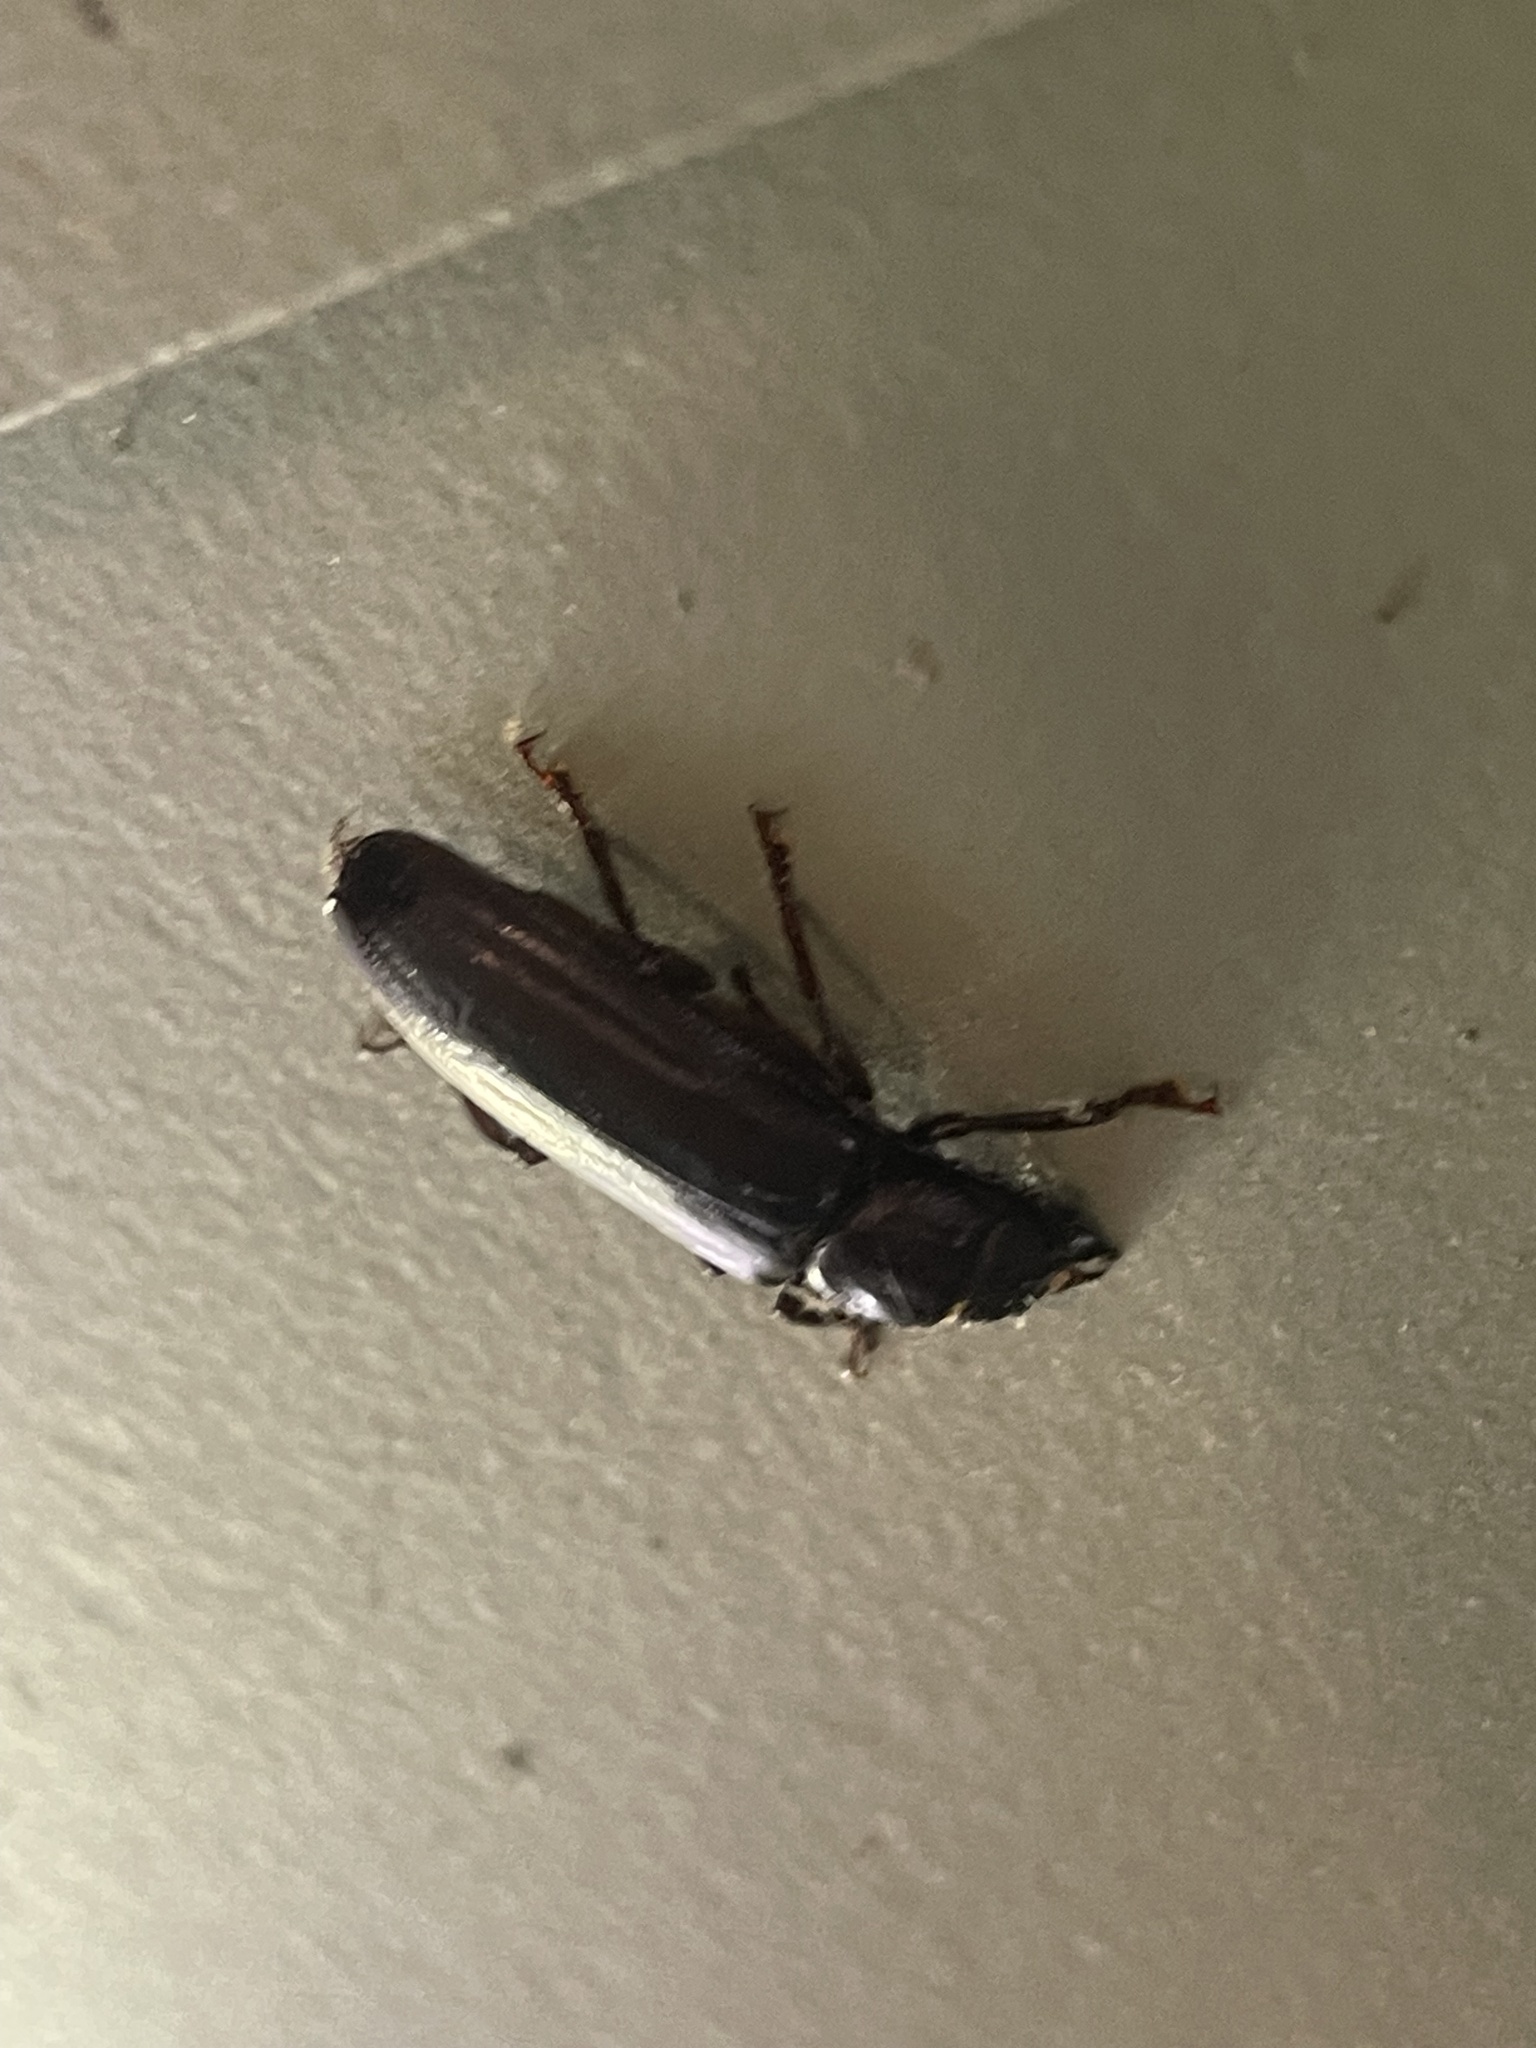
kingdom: Animalia
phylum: Arthropoda
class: Insecta
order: Coleoptera
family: Cerambycidae
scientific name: Cerambycidae
